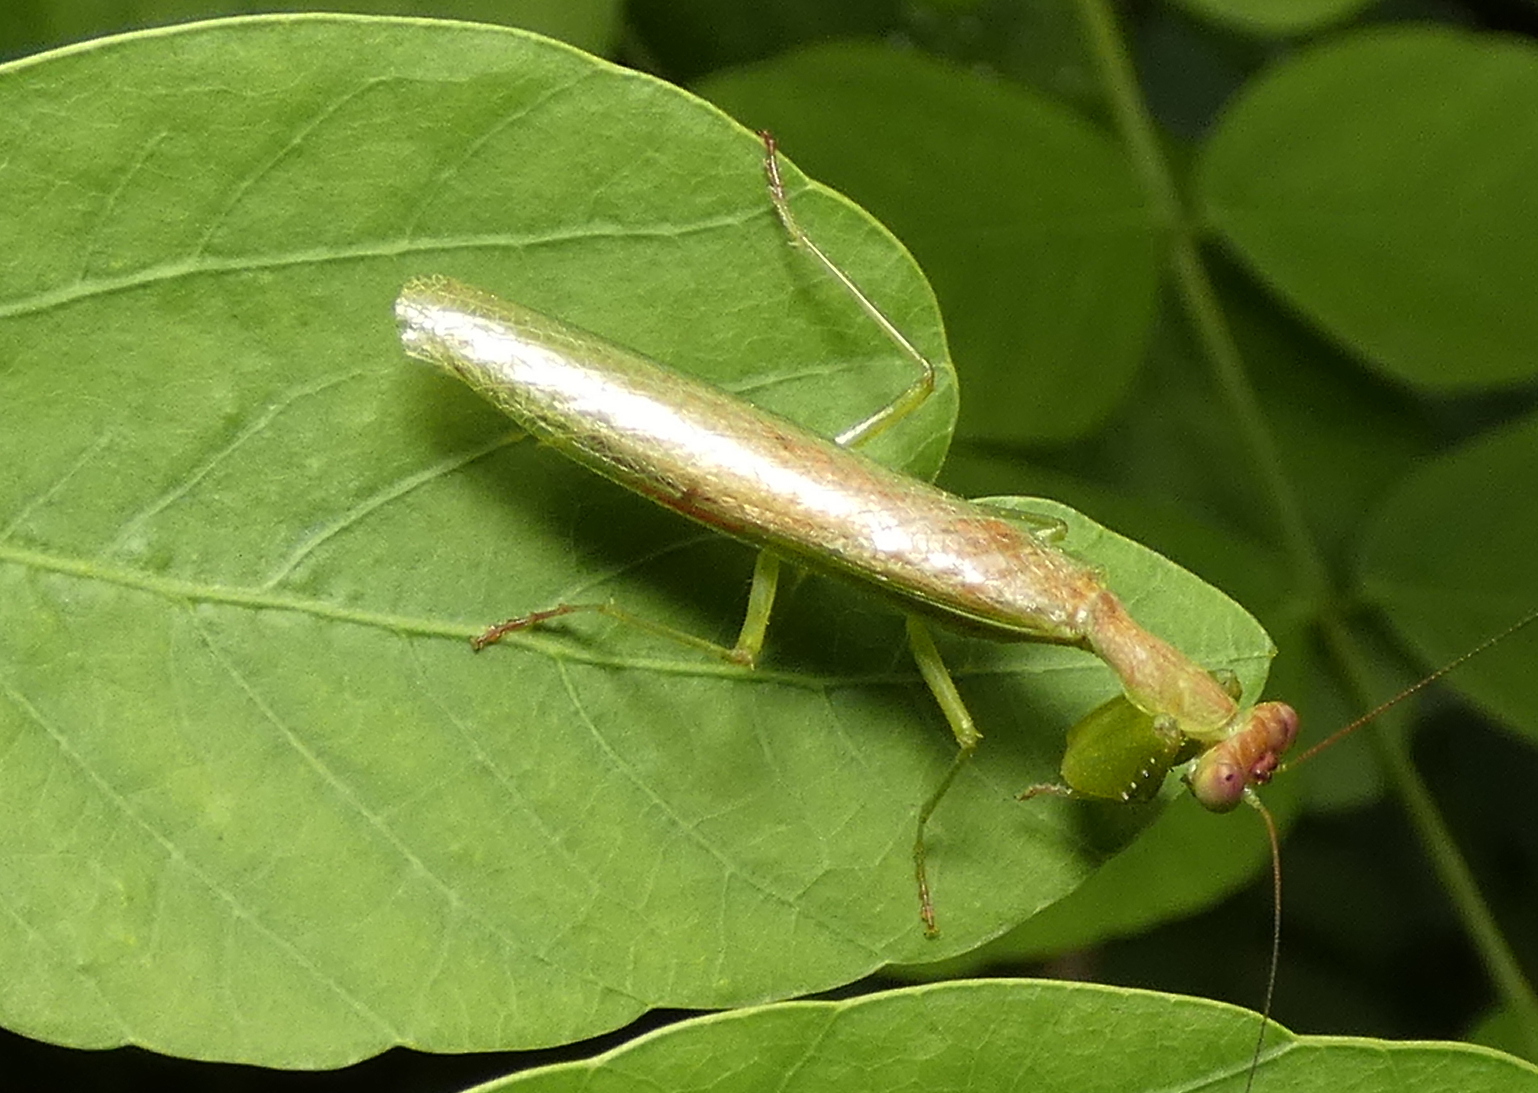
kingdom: Animalia
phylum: Arthropoda
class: Insecta
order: Mantodea
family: Acanthopidae
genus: Acontista
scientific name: Acontista
